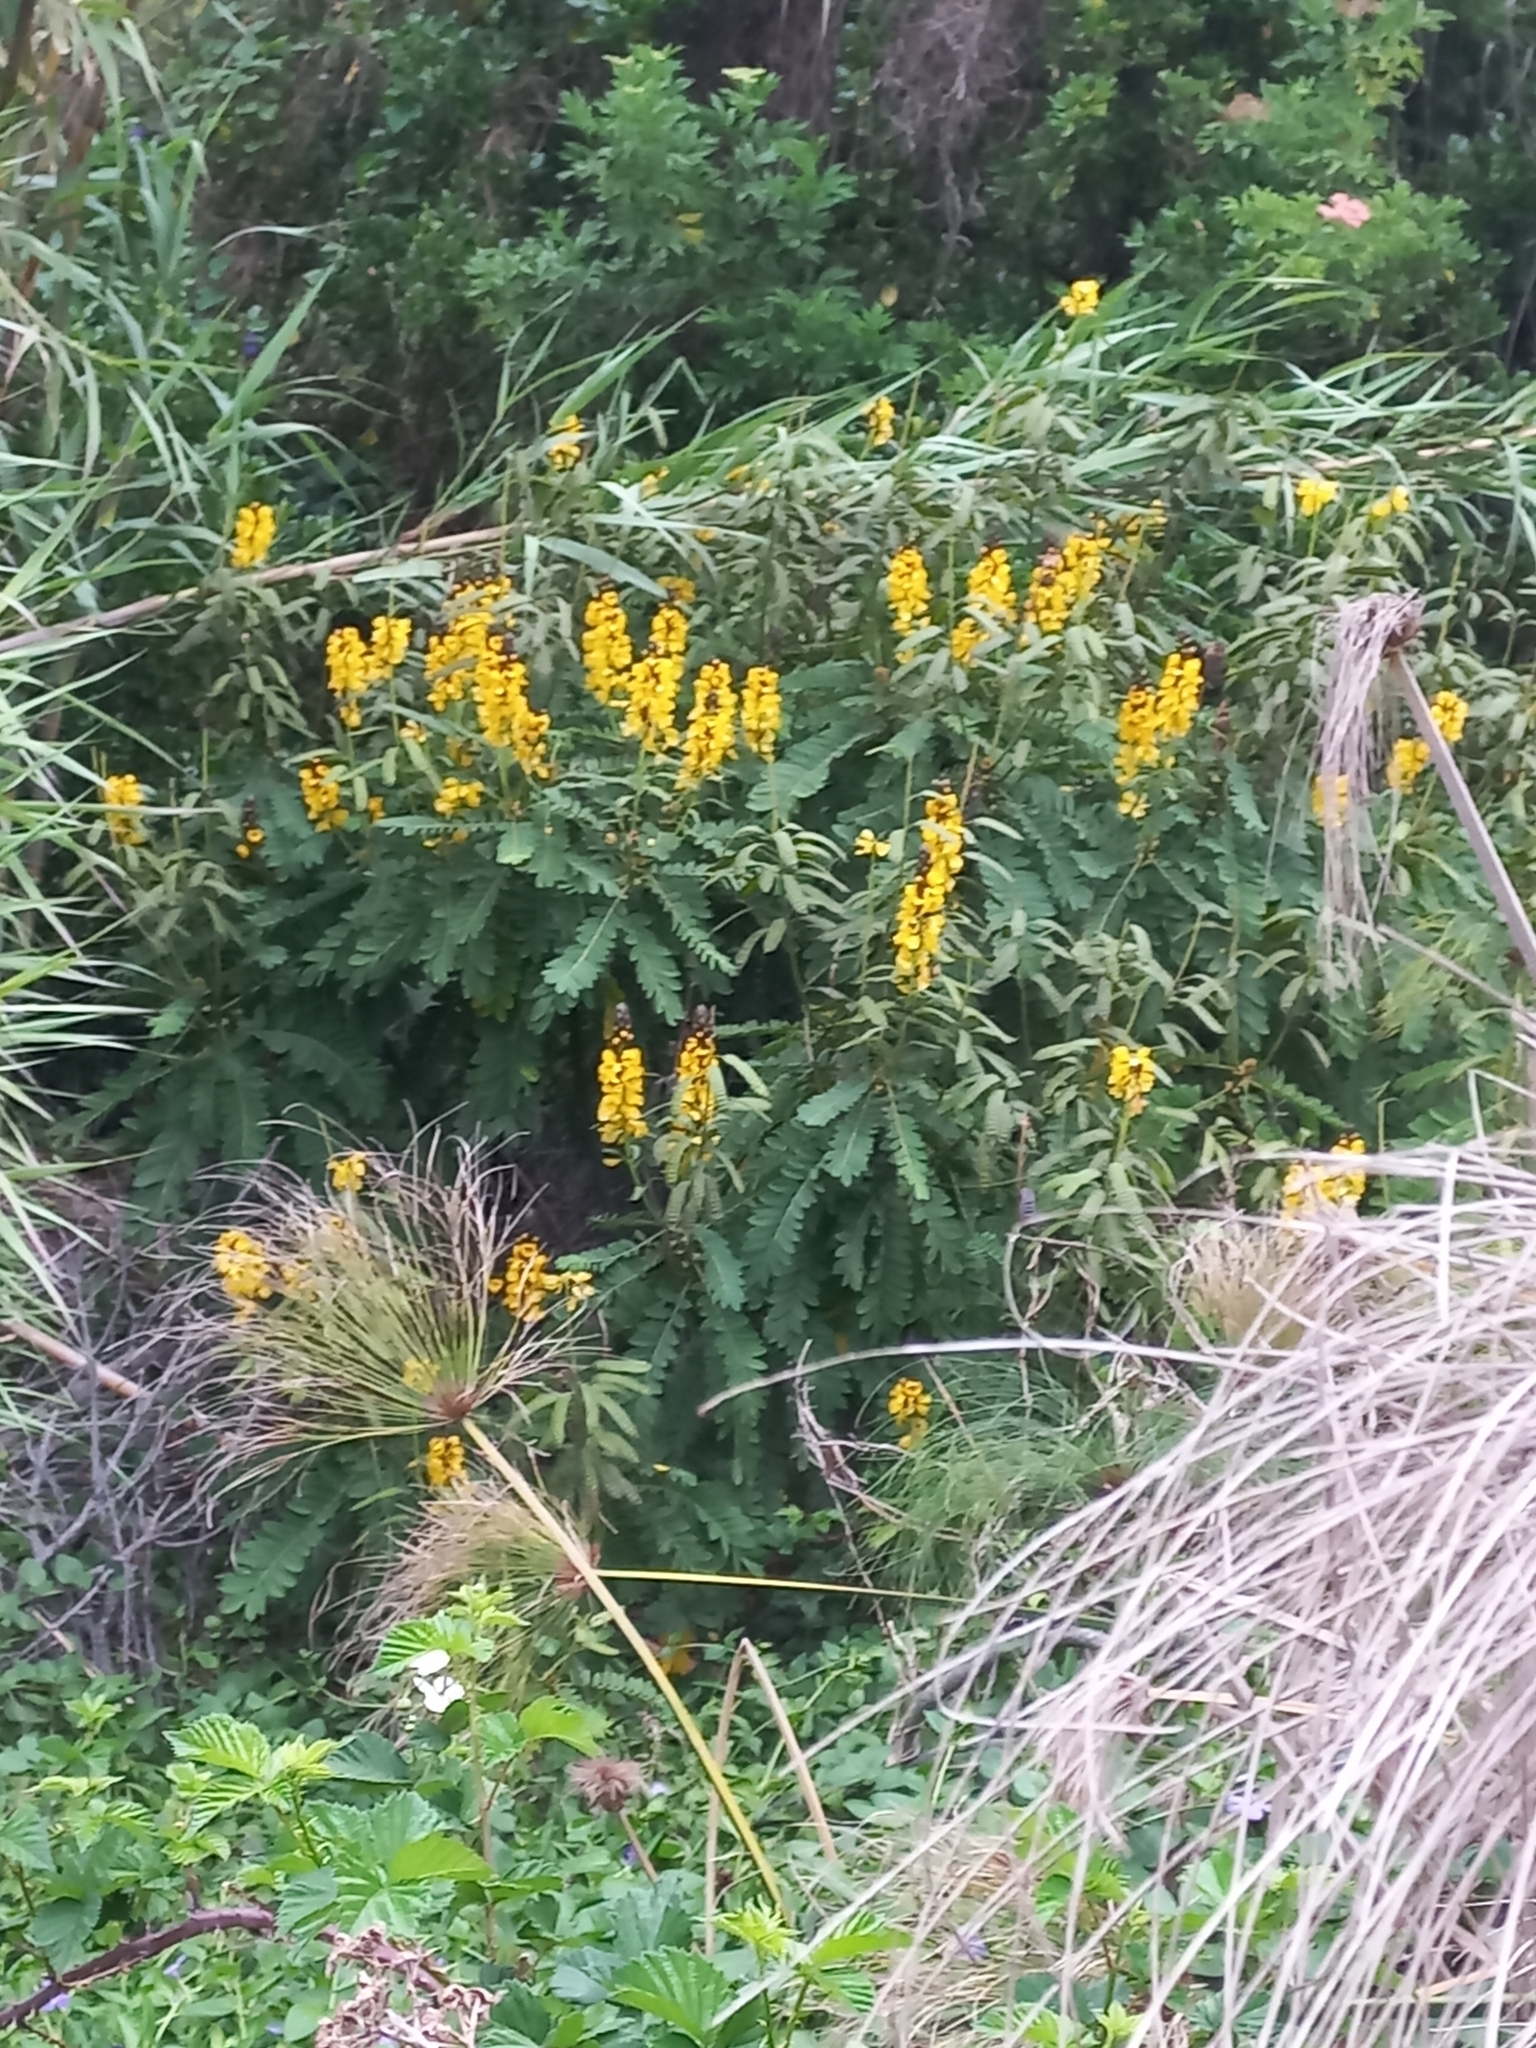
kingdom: Plantae
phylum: Tracheophyta
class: Magnoliopsida
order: Fabales
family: Fabaceae
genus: Senna
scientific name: Senna didymobotrya
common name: African senna
